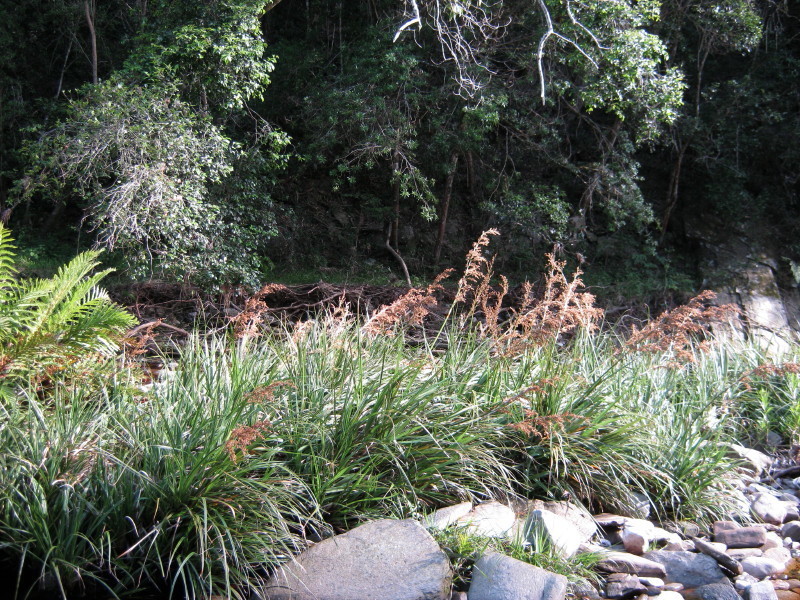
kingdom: Plantae
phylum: Tracheophyta
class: Liliopsida
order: Poales
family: Thurniaceae
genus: Prionium
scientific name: Prionium serratum
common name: Palmiet
